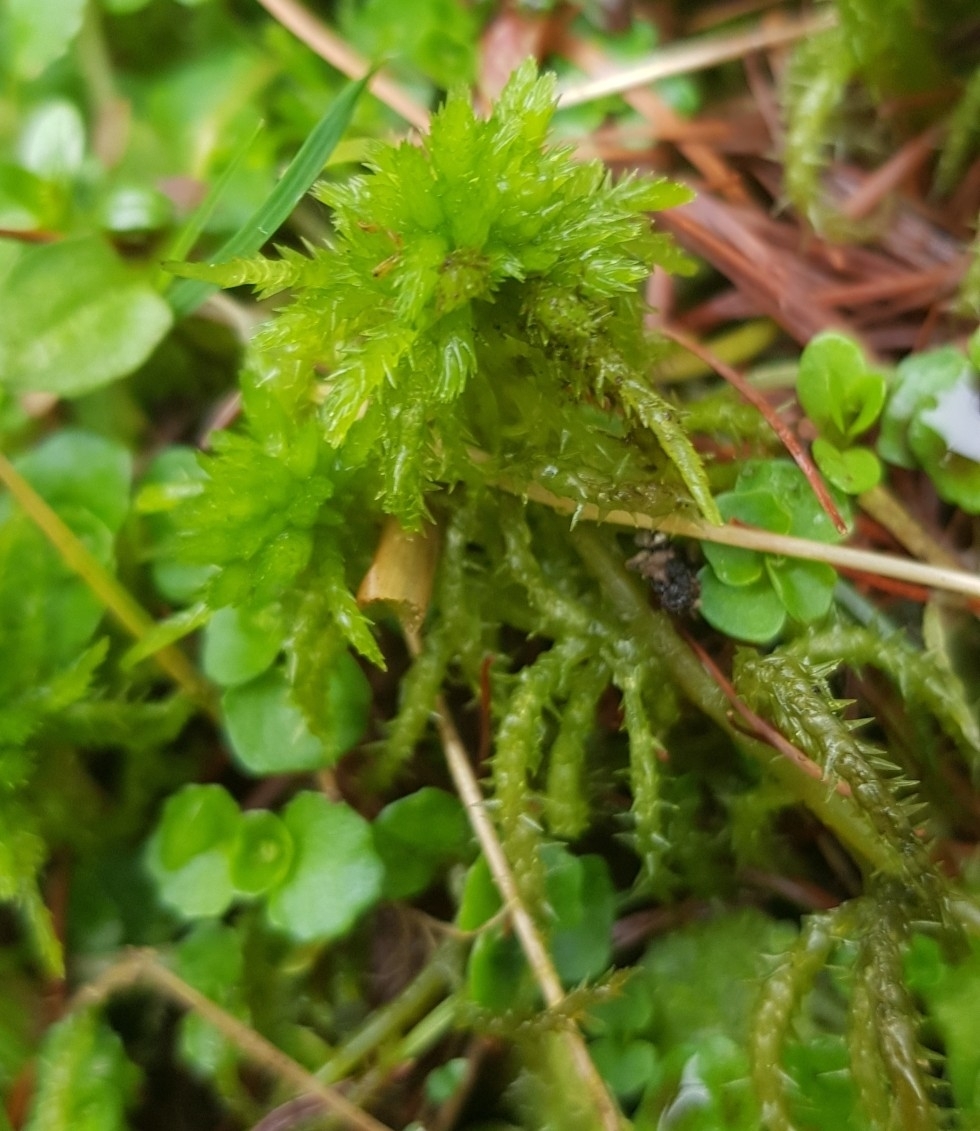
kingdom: Plantae
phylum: Bryophyta
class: Sphagnopsida
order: Sphagnales
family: Sphagnaceae
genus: Sphagnum
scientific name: Sphagnum squarrosum
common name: Shaggy peat moss
